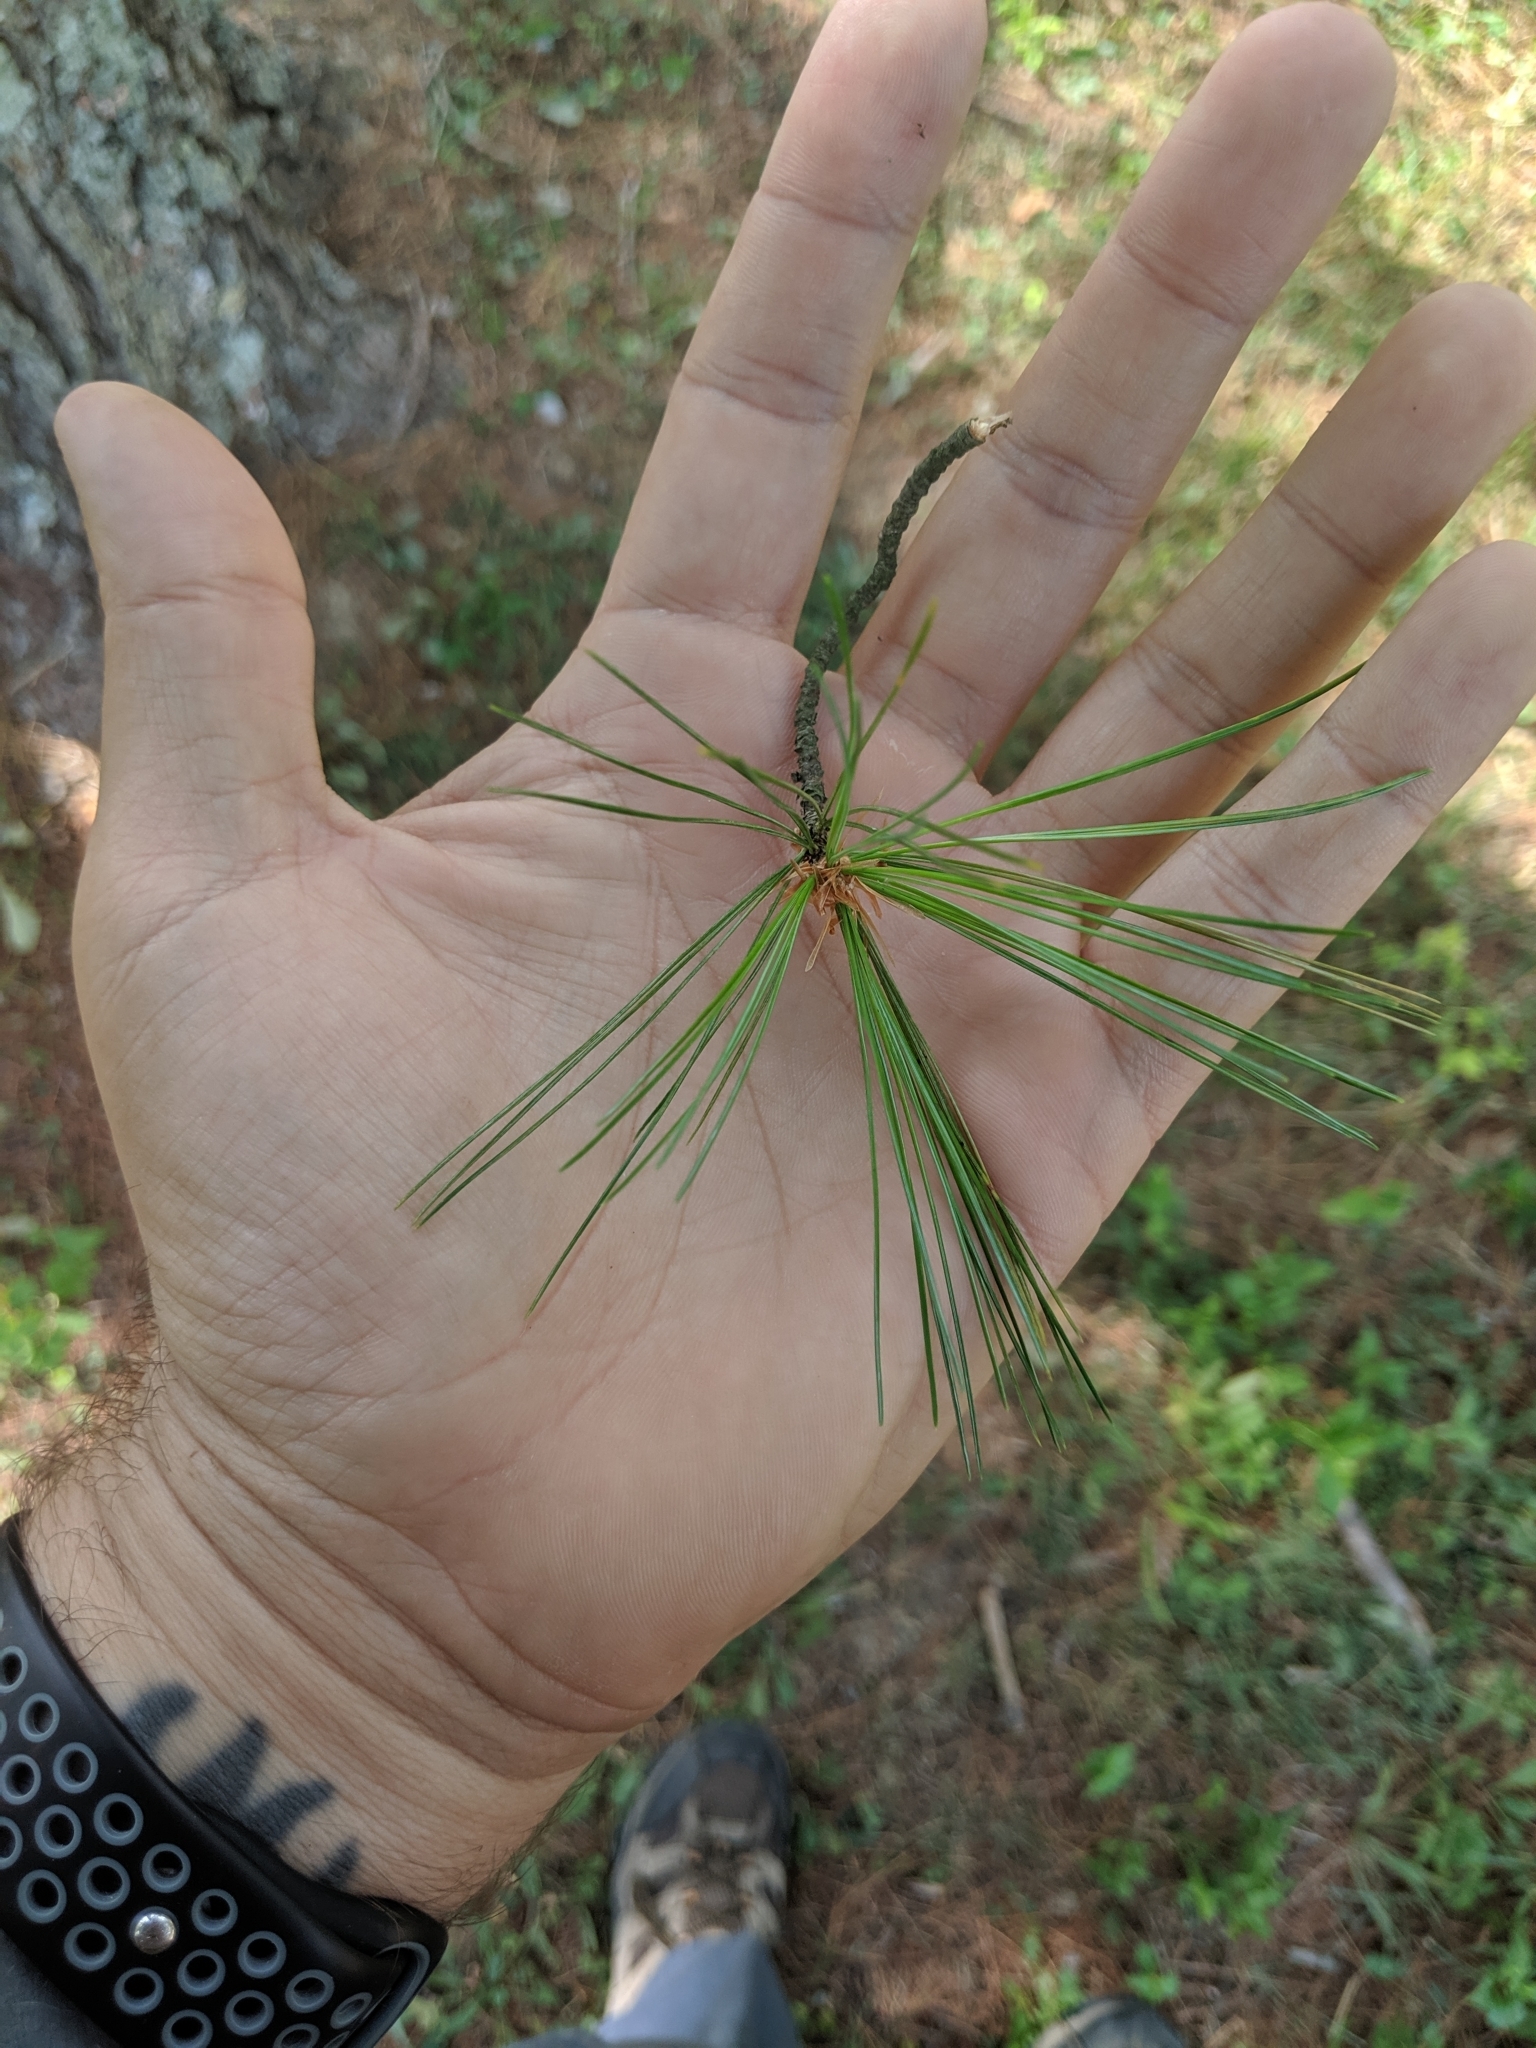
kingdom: Plantae
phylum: Tracheophyta
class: Pinopsida
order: Pinales
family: Pinaceae
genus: Pinus
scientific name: Pinus strobus
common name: Weymouth pine
